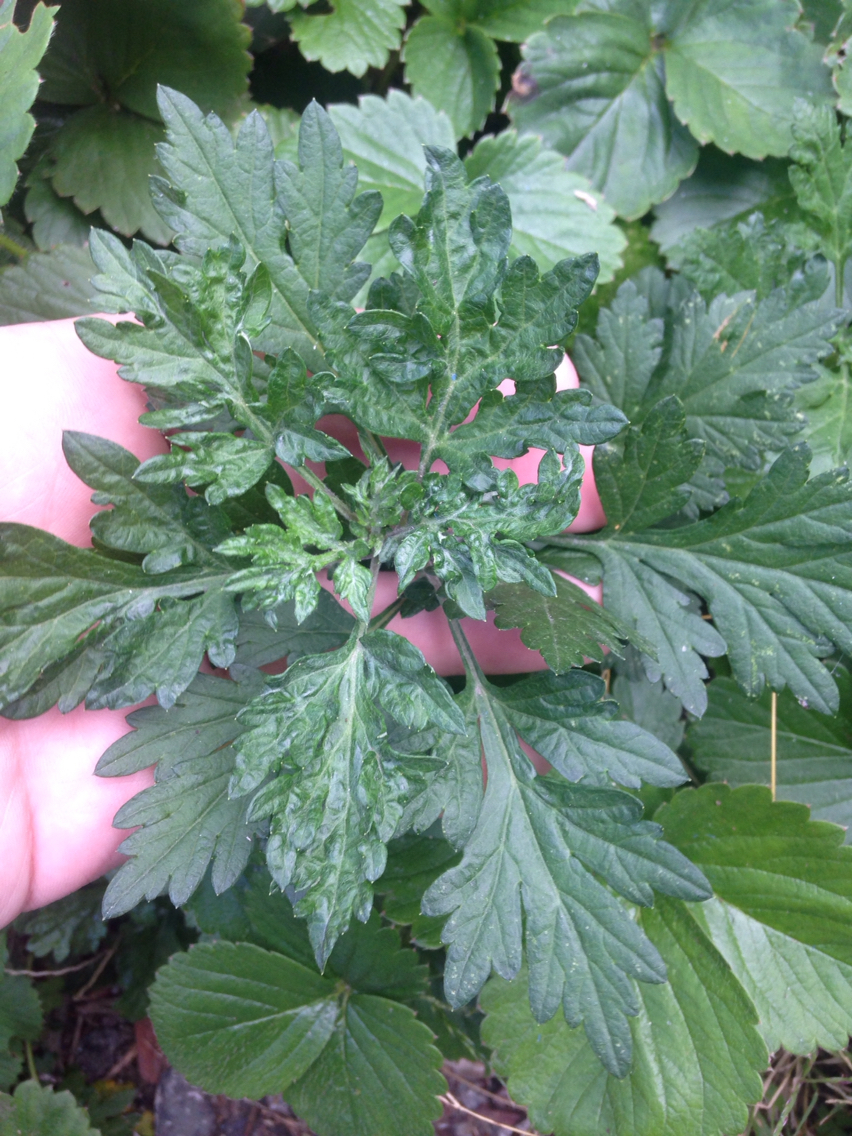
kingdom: Plantae
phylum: Tracheophyta
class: Magnoliopsida
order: Asterales
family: Asteraceae
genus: Artemisia
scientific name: Artemisia vulgaris
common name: Mugwort
